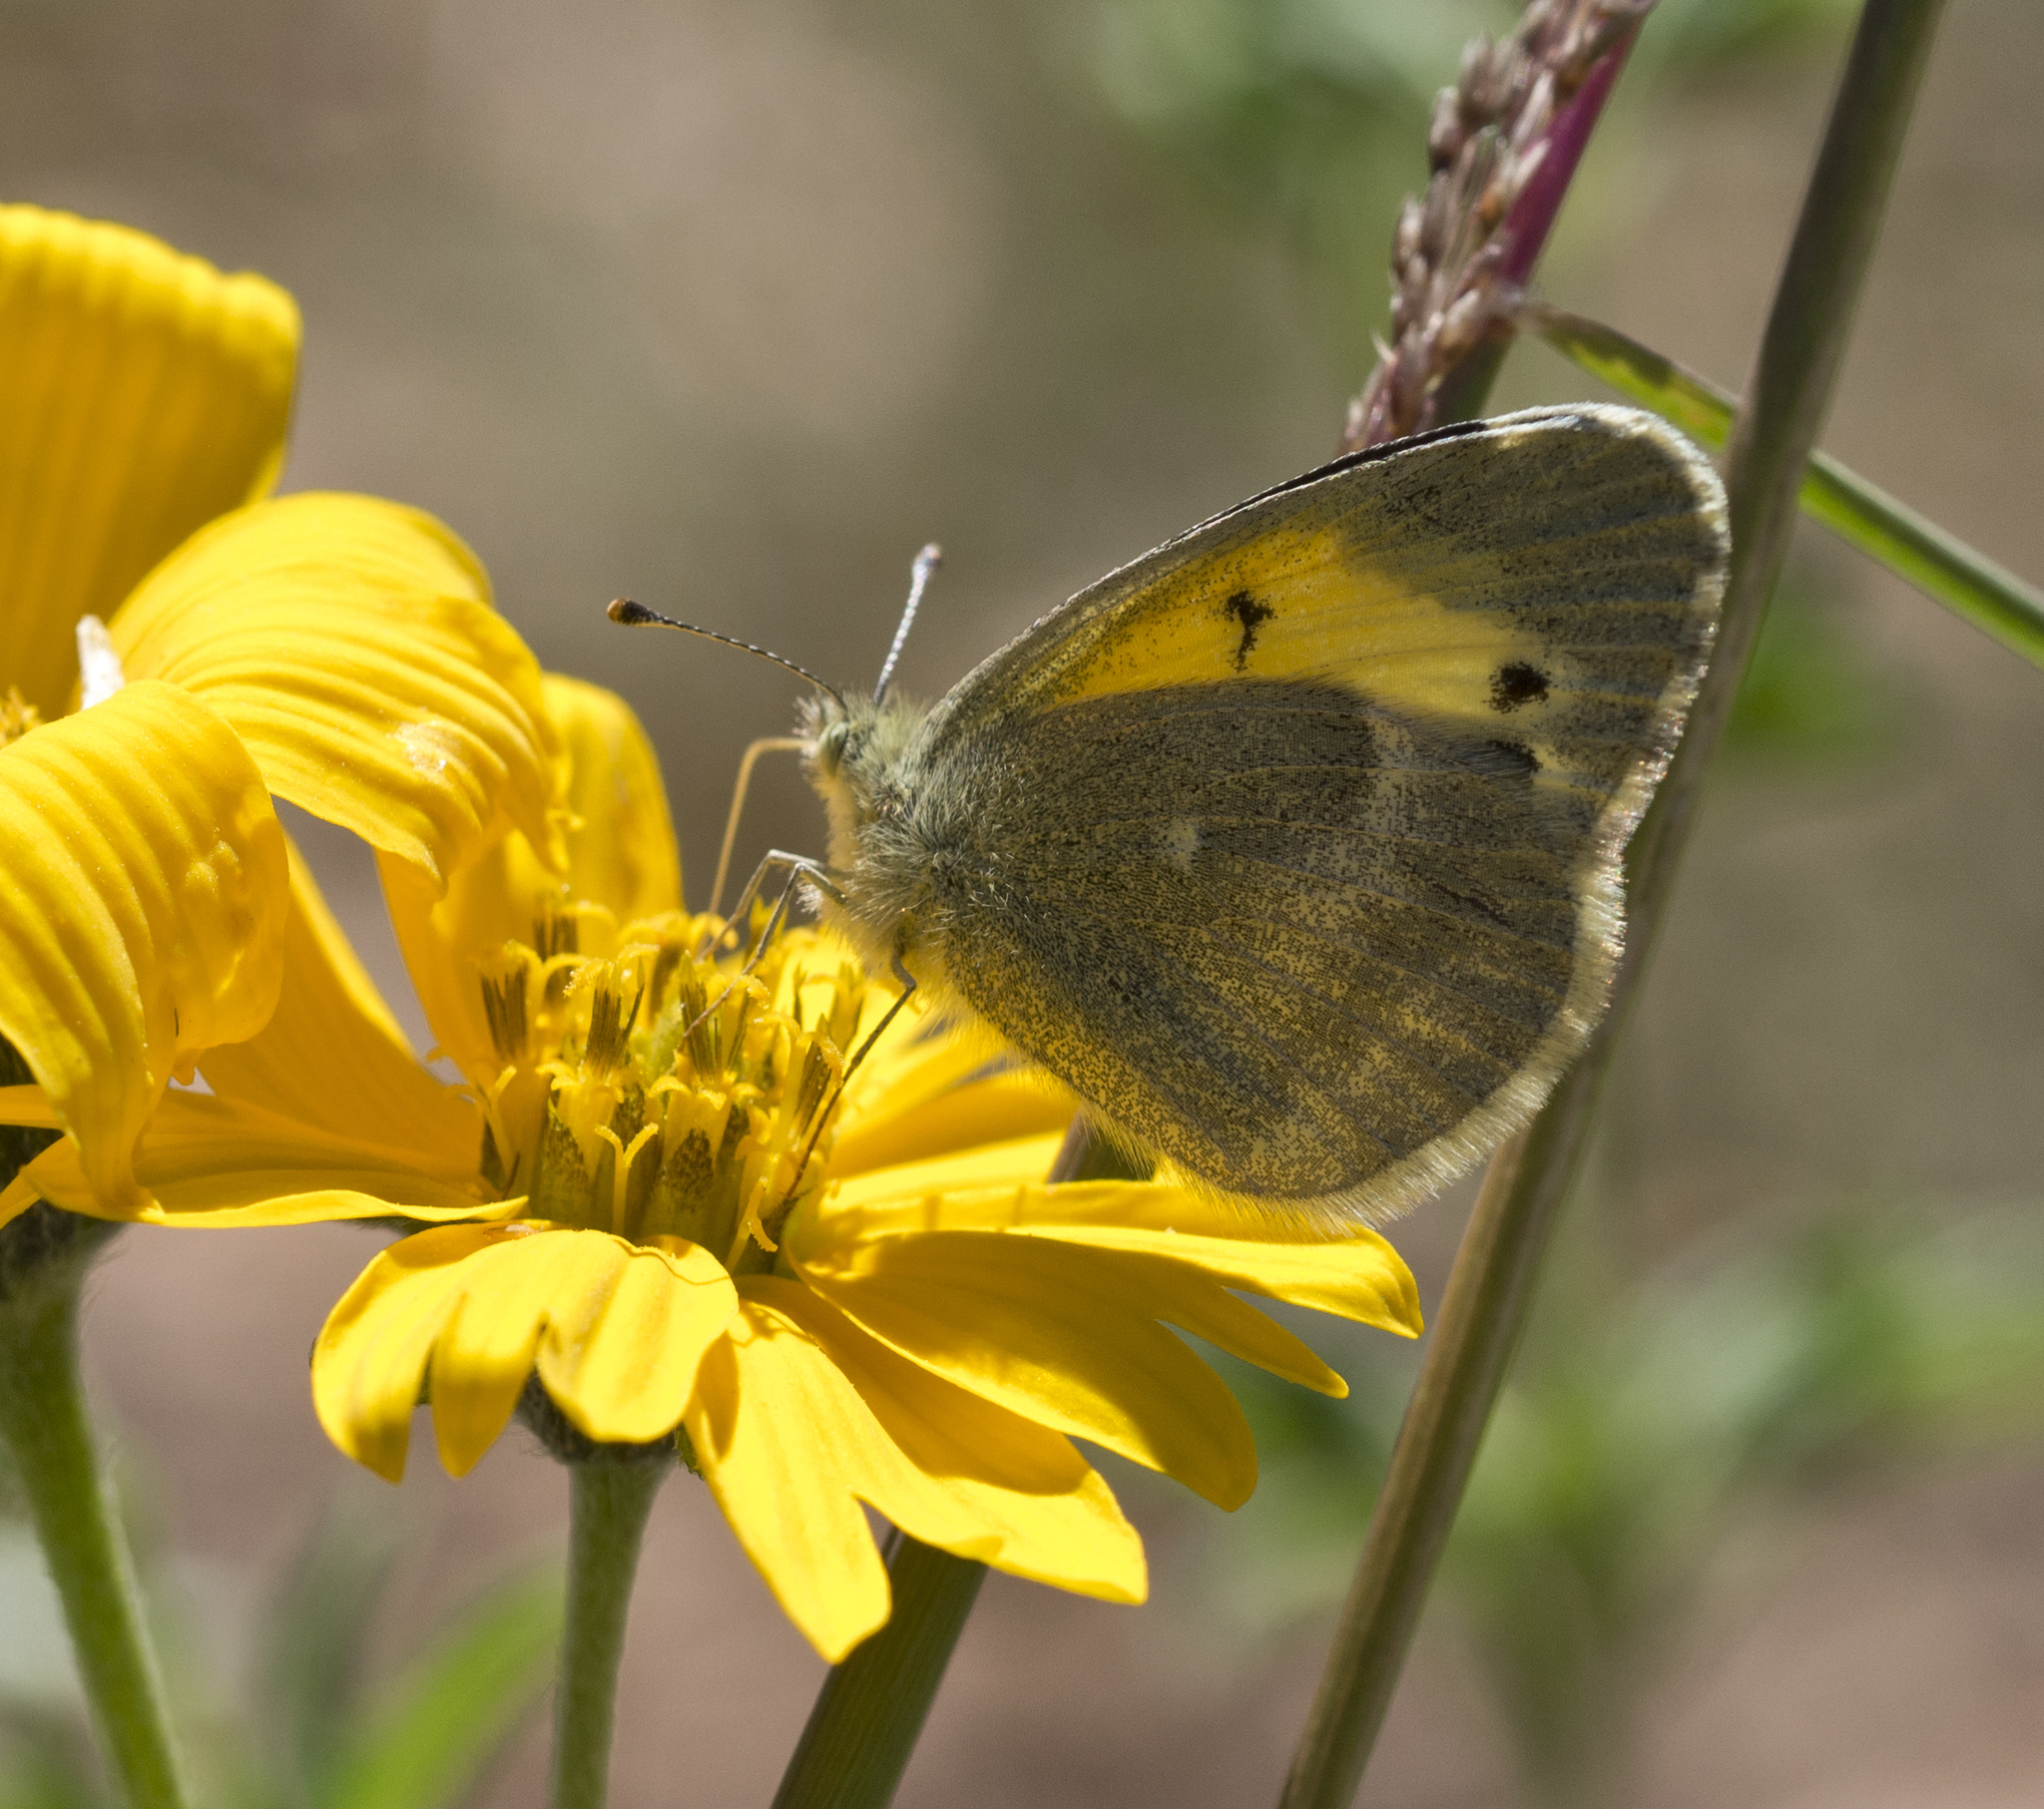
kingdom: Animalia
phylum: Arthropoda
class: Insecta
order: Lepidoptera
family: Pieridae
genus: Nathalis
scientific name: Nathalis iole
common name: Dainty sulphur
